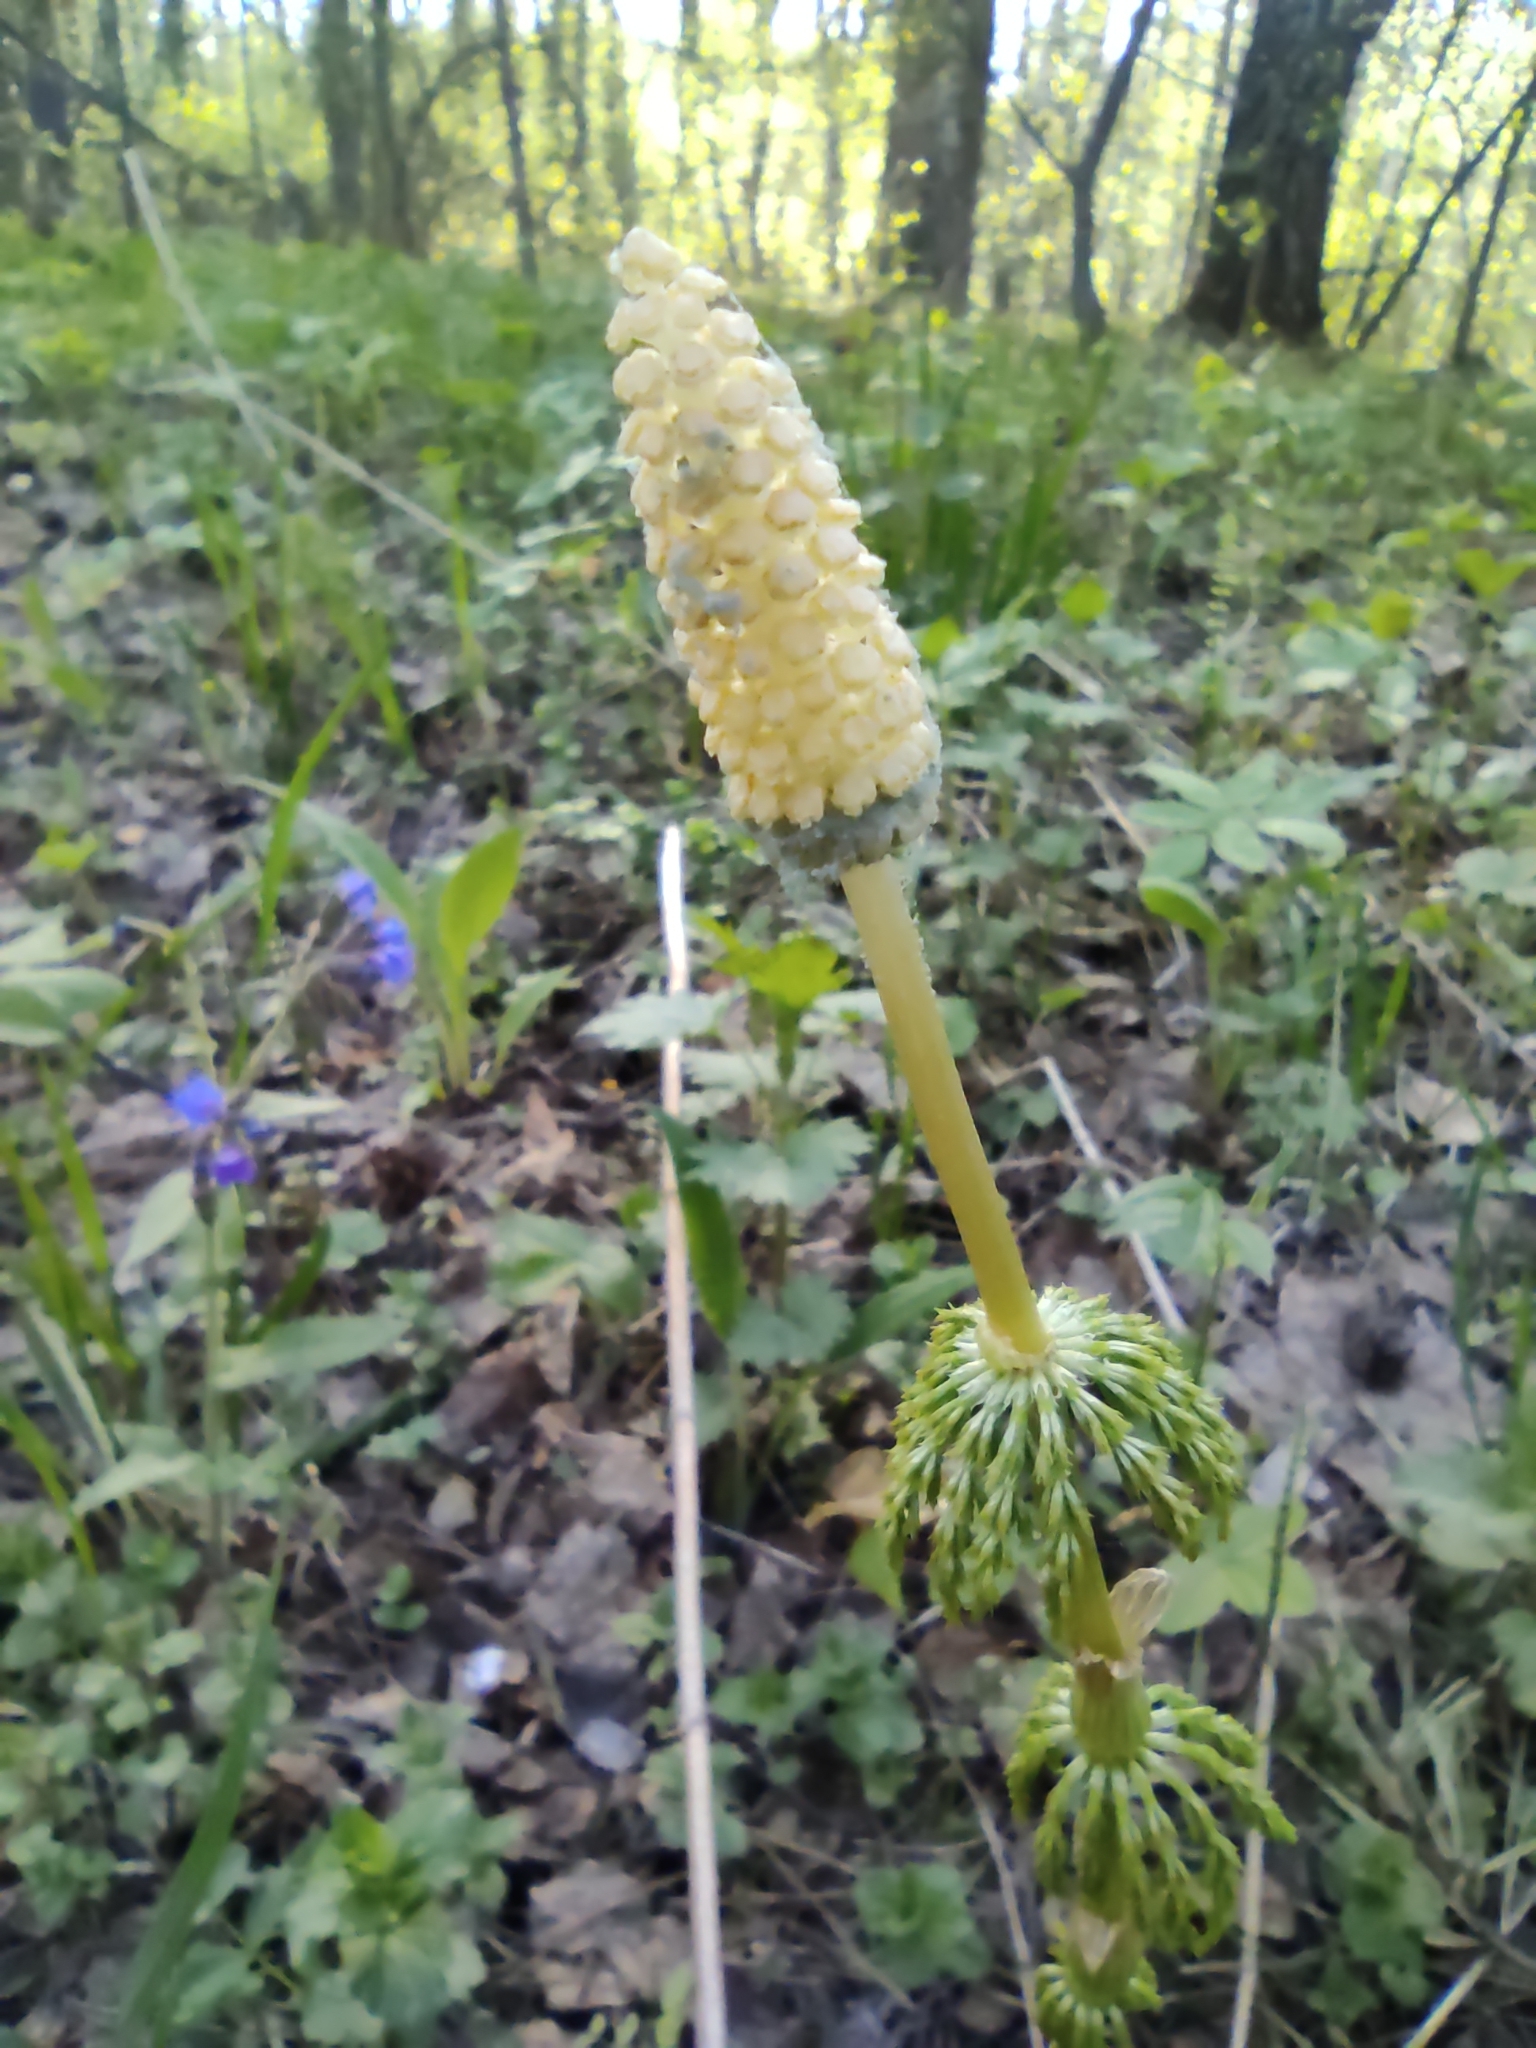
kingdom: Plantae
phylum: Tracheophyta
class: Polypodiopsida
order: Equisetales
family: Equisetaceae
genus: Equisetum
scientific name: Equisetum sylvaticum
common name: Wood horsetail
